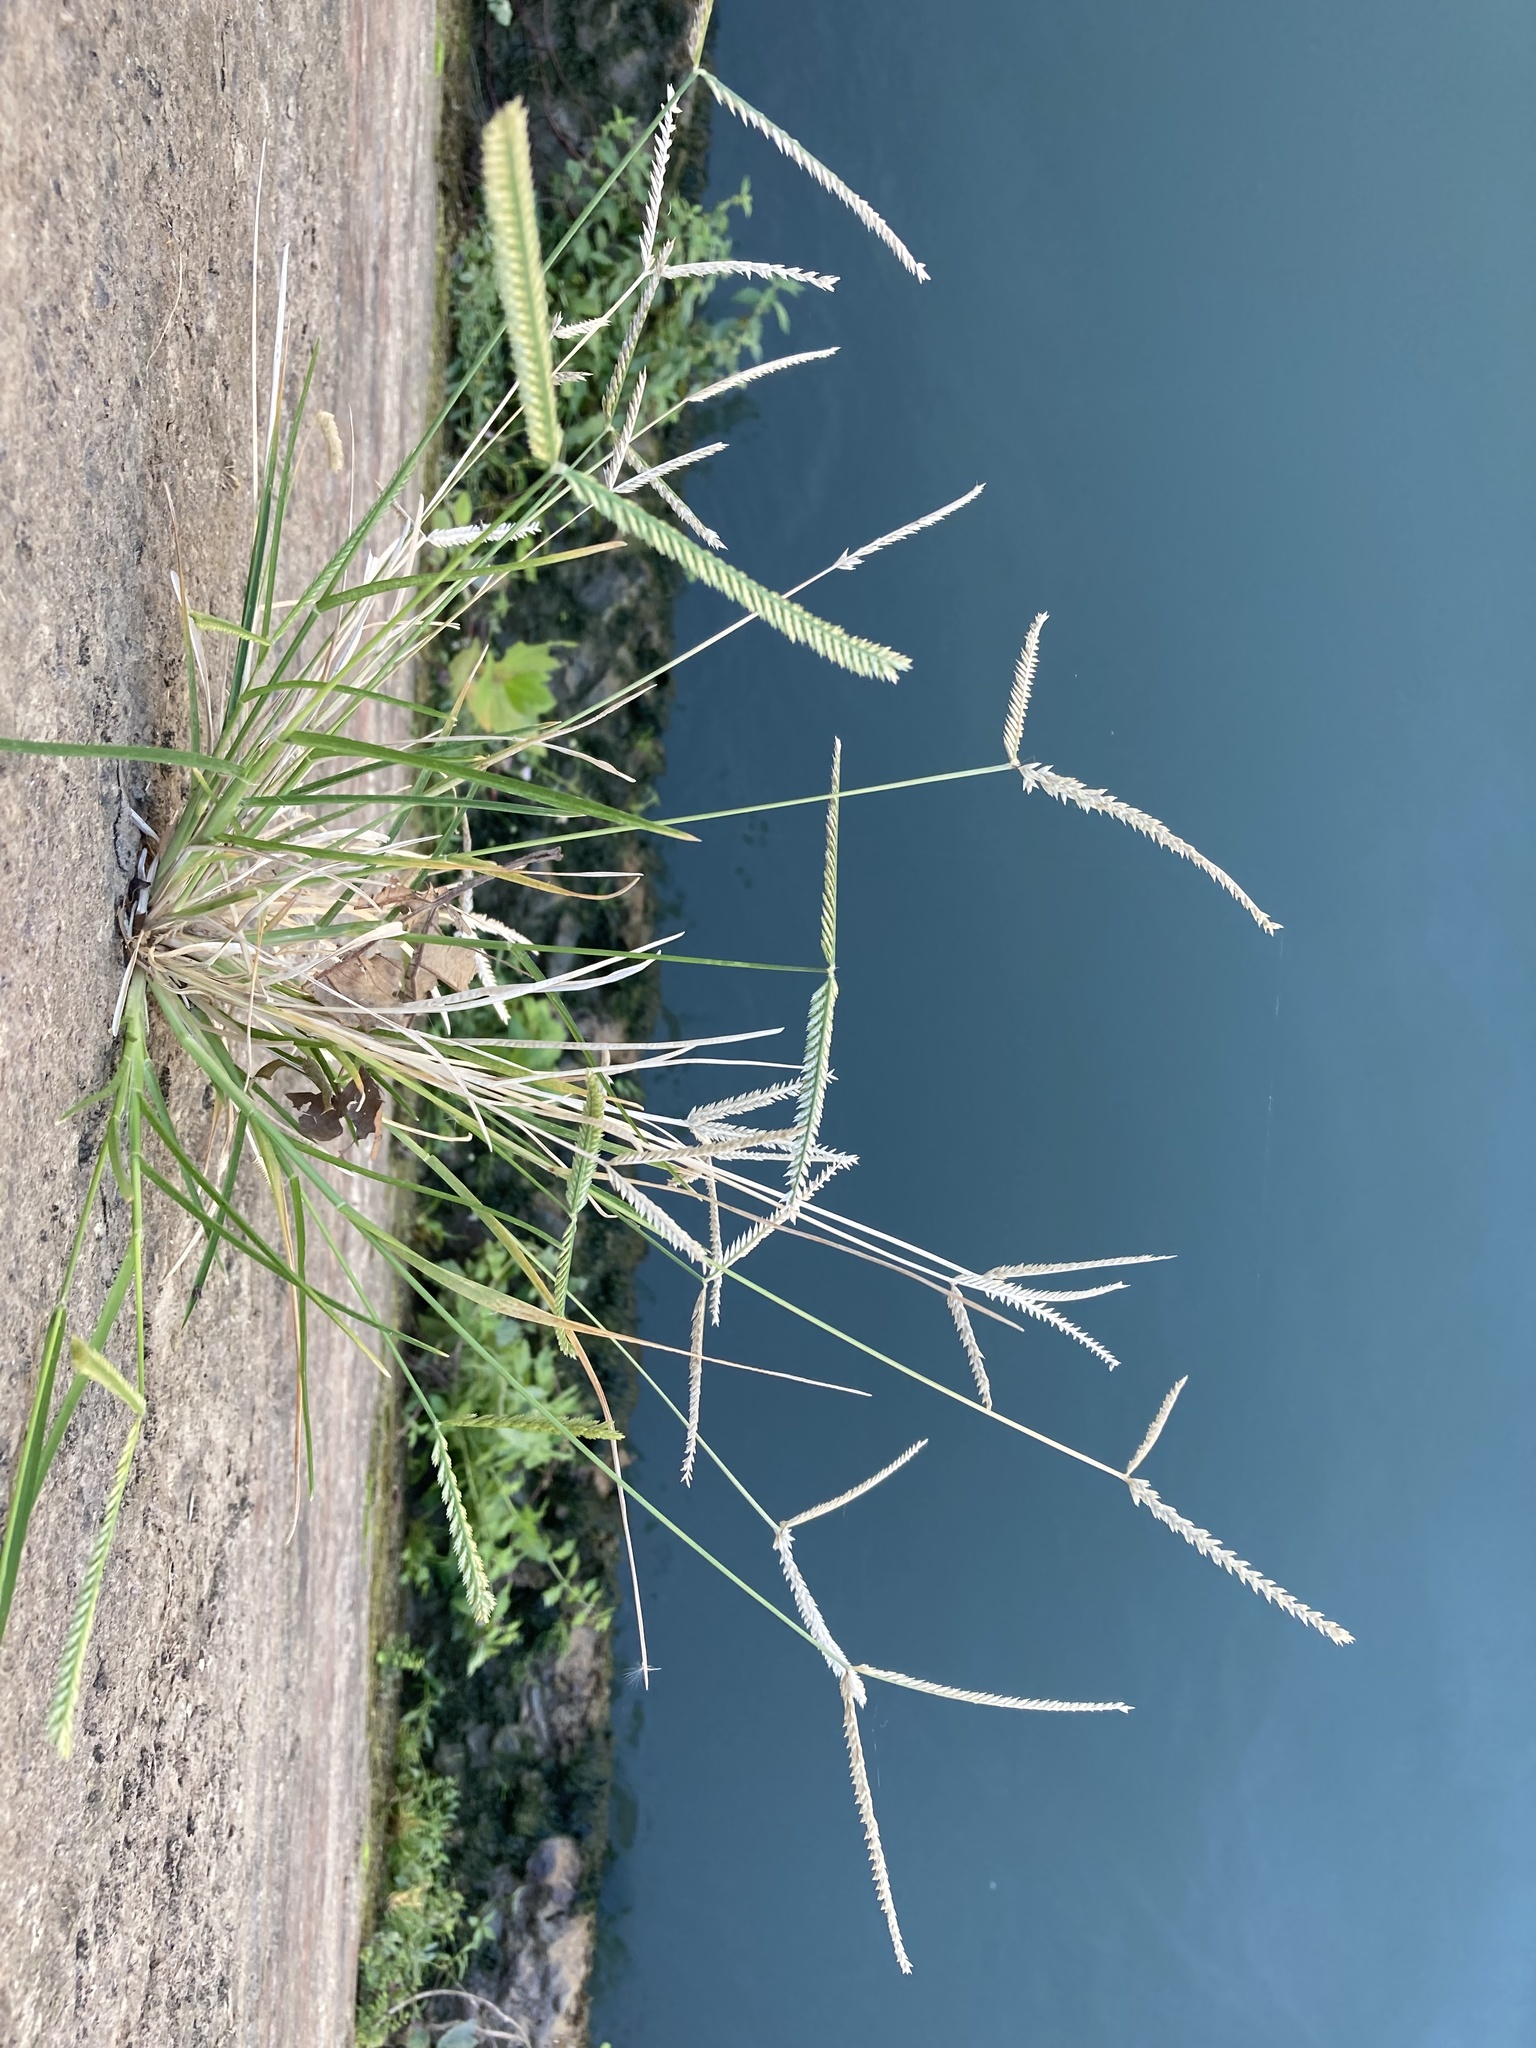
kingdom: Plantae
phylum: Tracheophyta
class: Liliopsida
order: Poales
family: Poaceae
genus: Eleusine
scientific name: Eleusine indica
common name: Yard-grass
